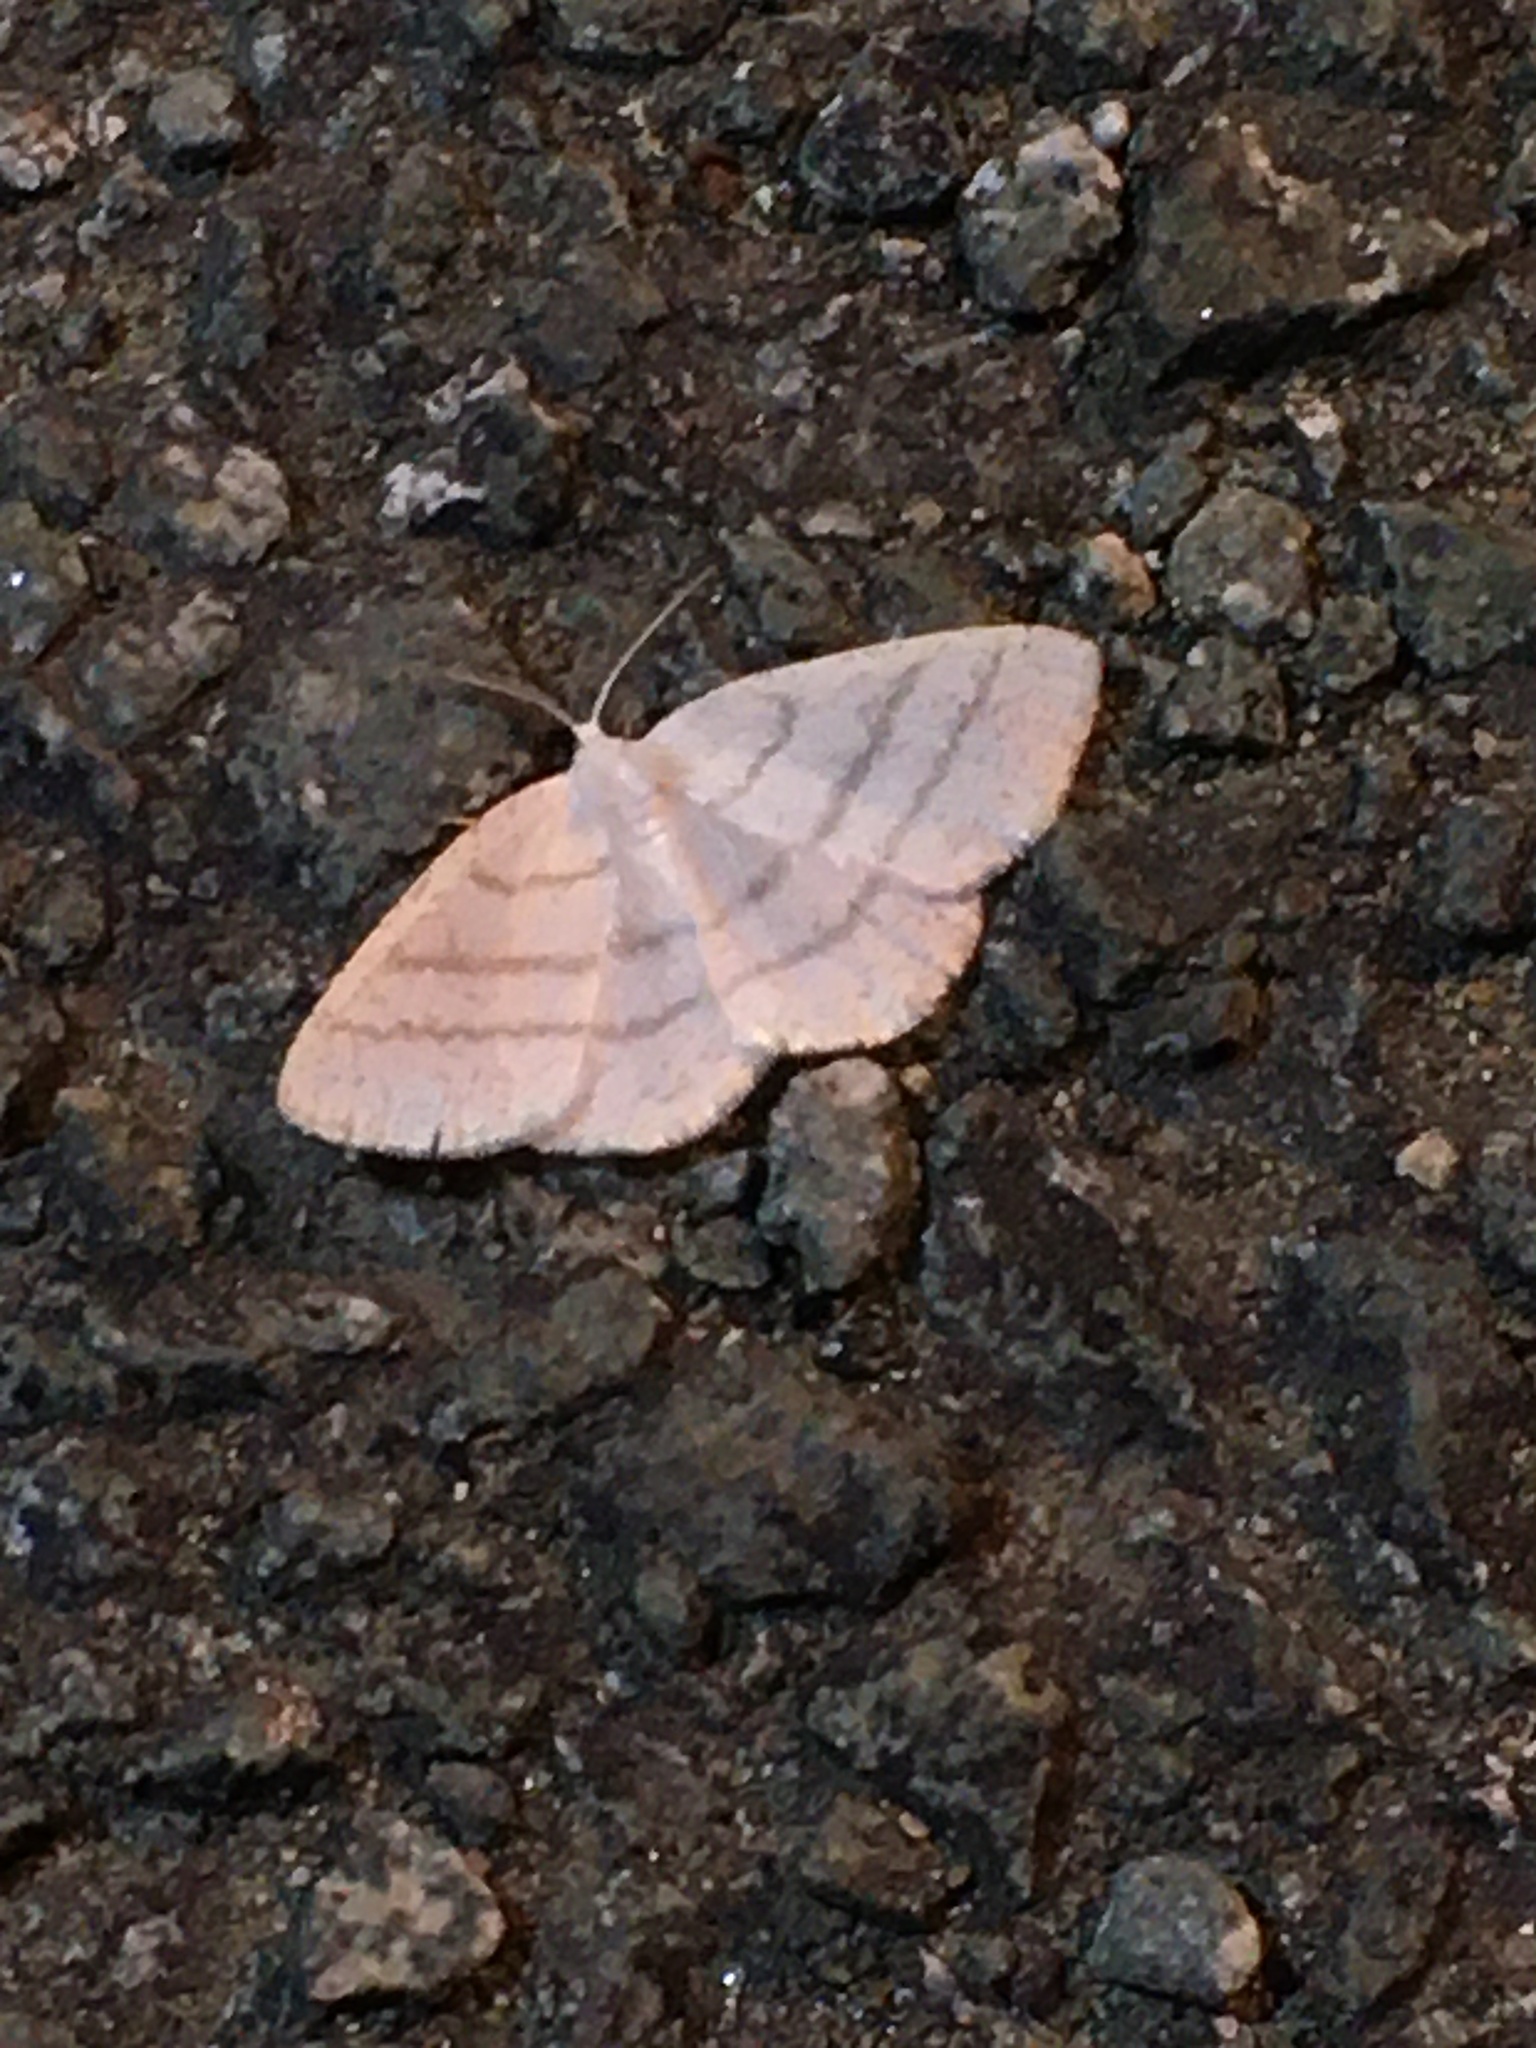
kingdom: Animalia
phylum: Arthropoda
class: Insecta
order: Lepidoptera
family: Geometridae
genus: Cabera
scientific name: Cabera pusaria
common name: Common white wave
